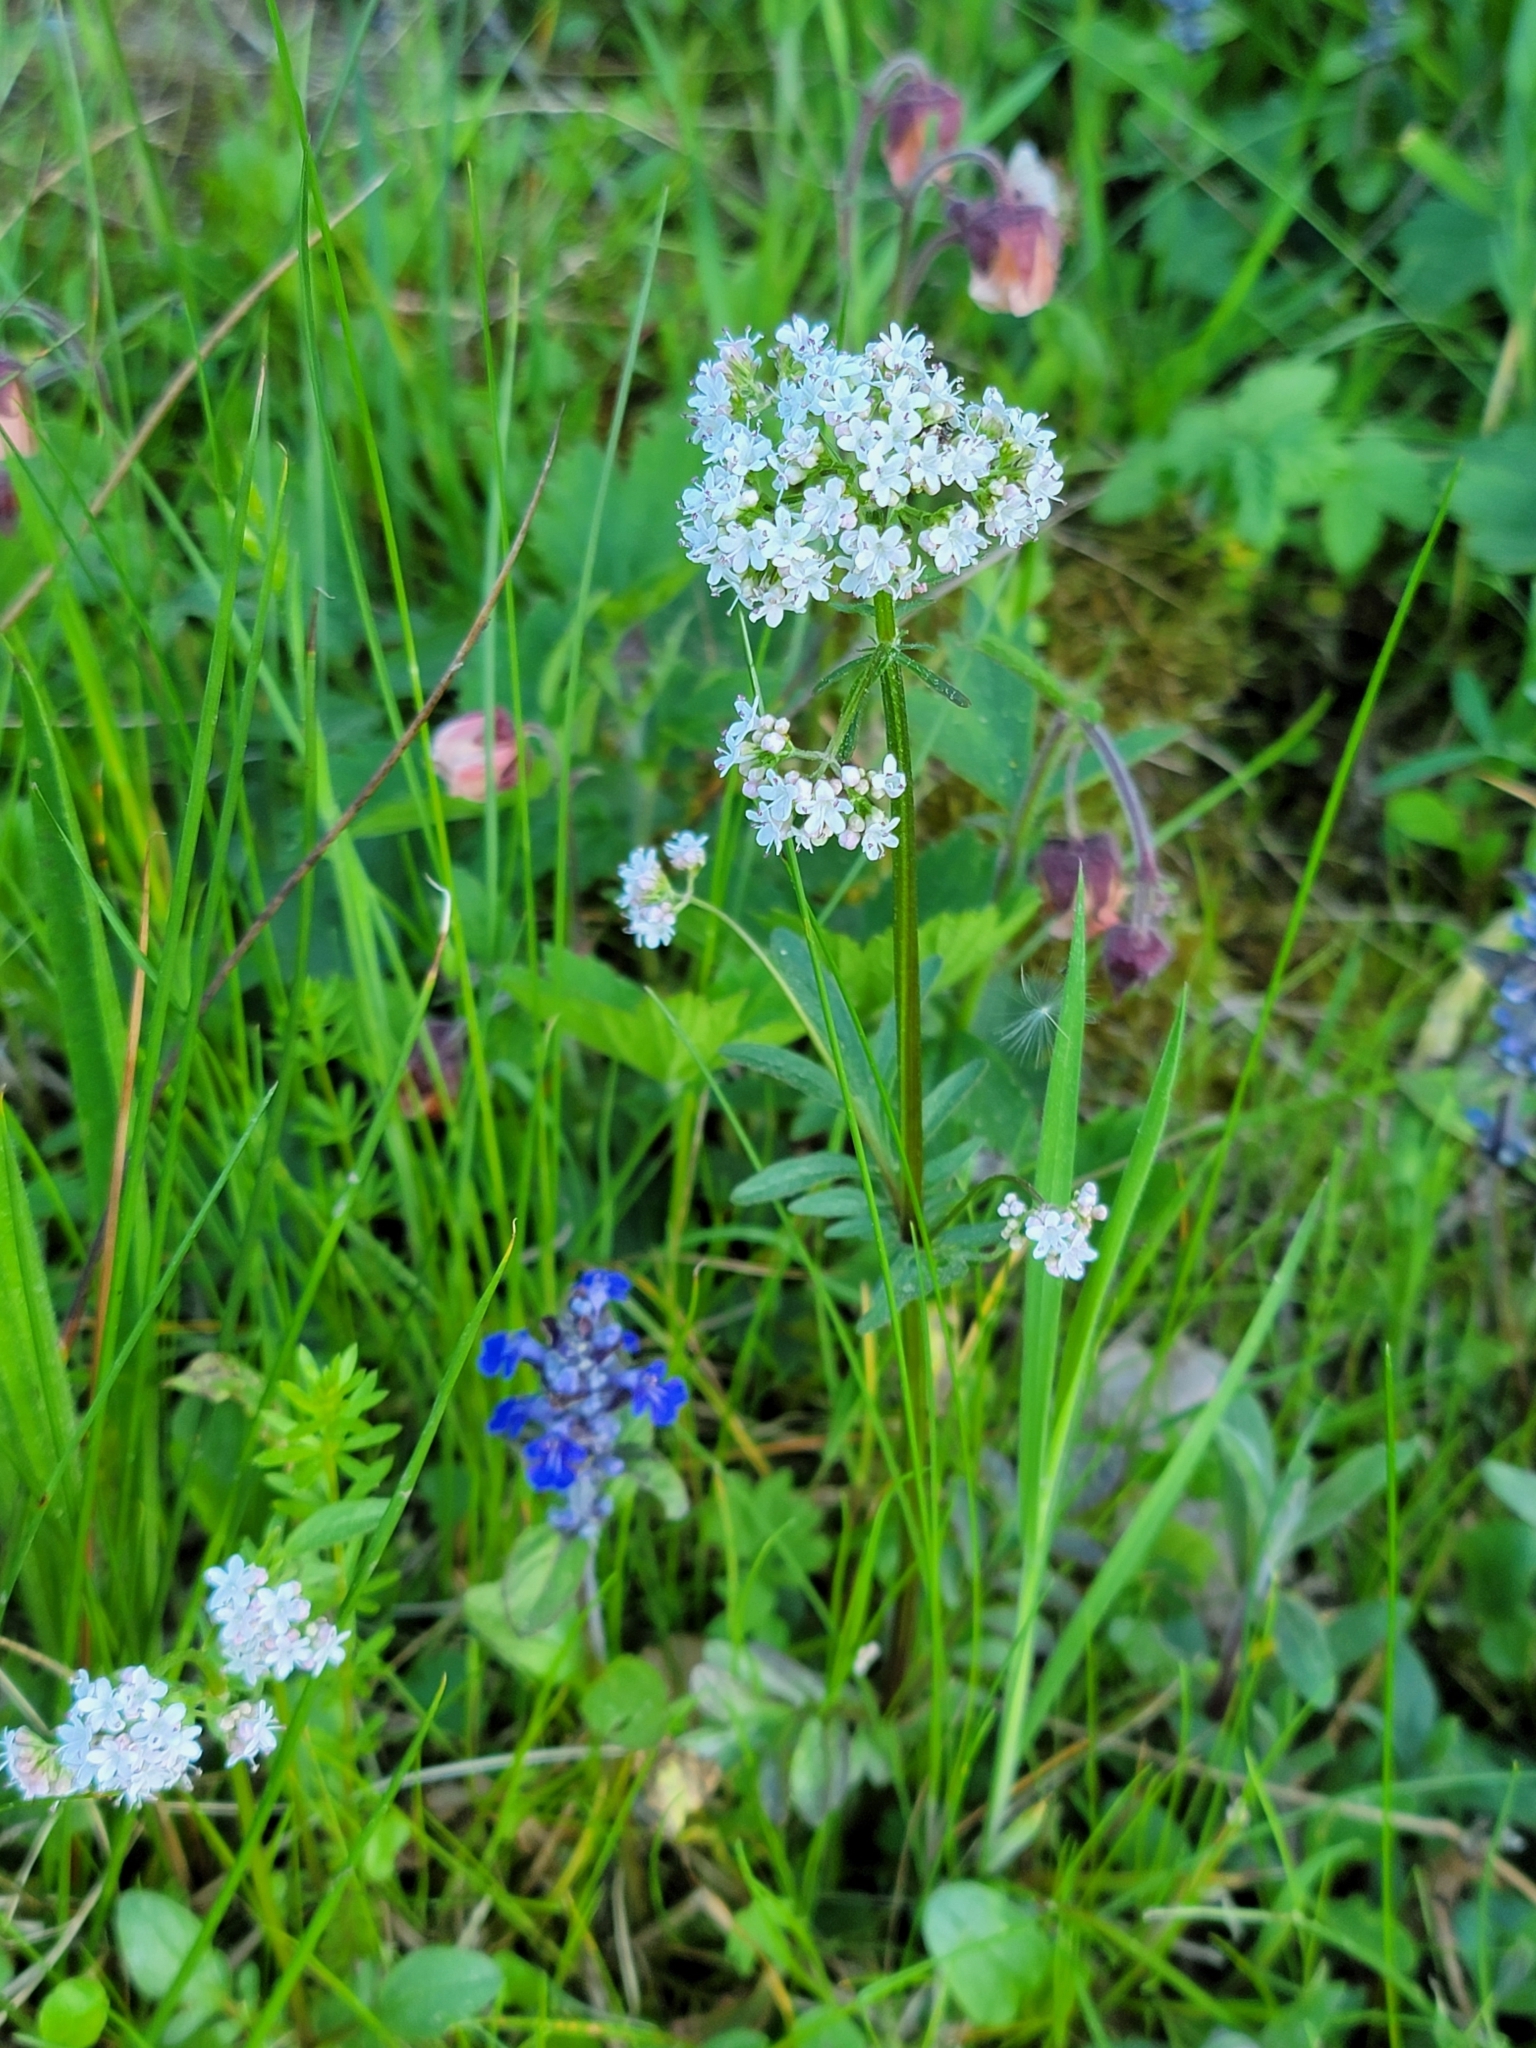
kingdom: Plantae
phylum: Tracheophyta
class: Magnoliopsida
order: Dipsacales
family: Caprifoliaceae
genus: Valeriana
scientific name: Valeriana dioica
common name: Marsh valerian
